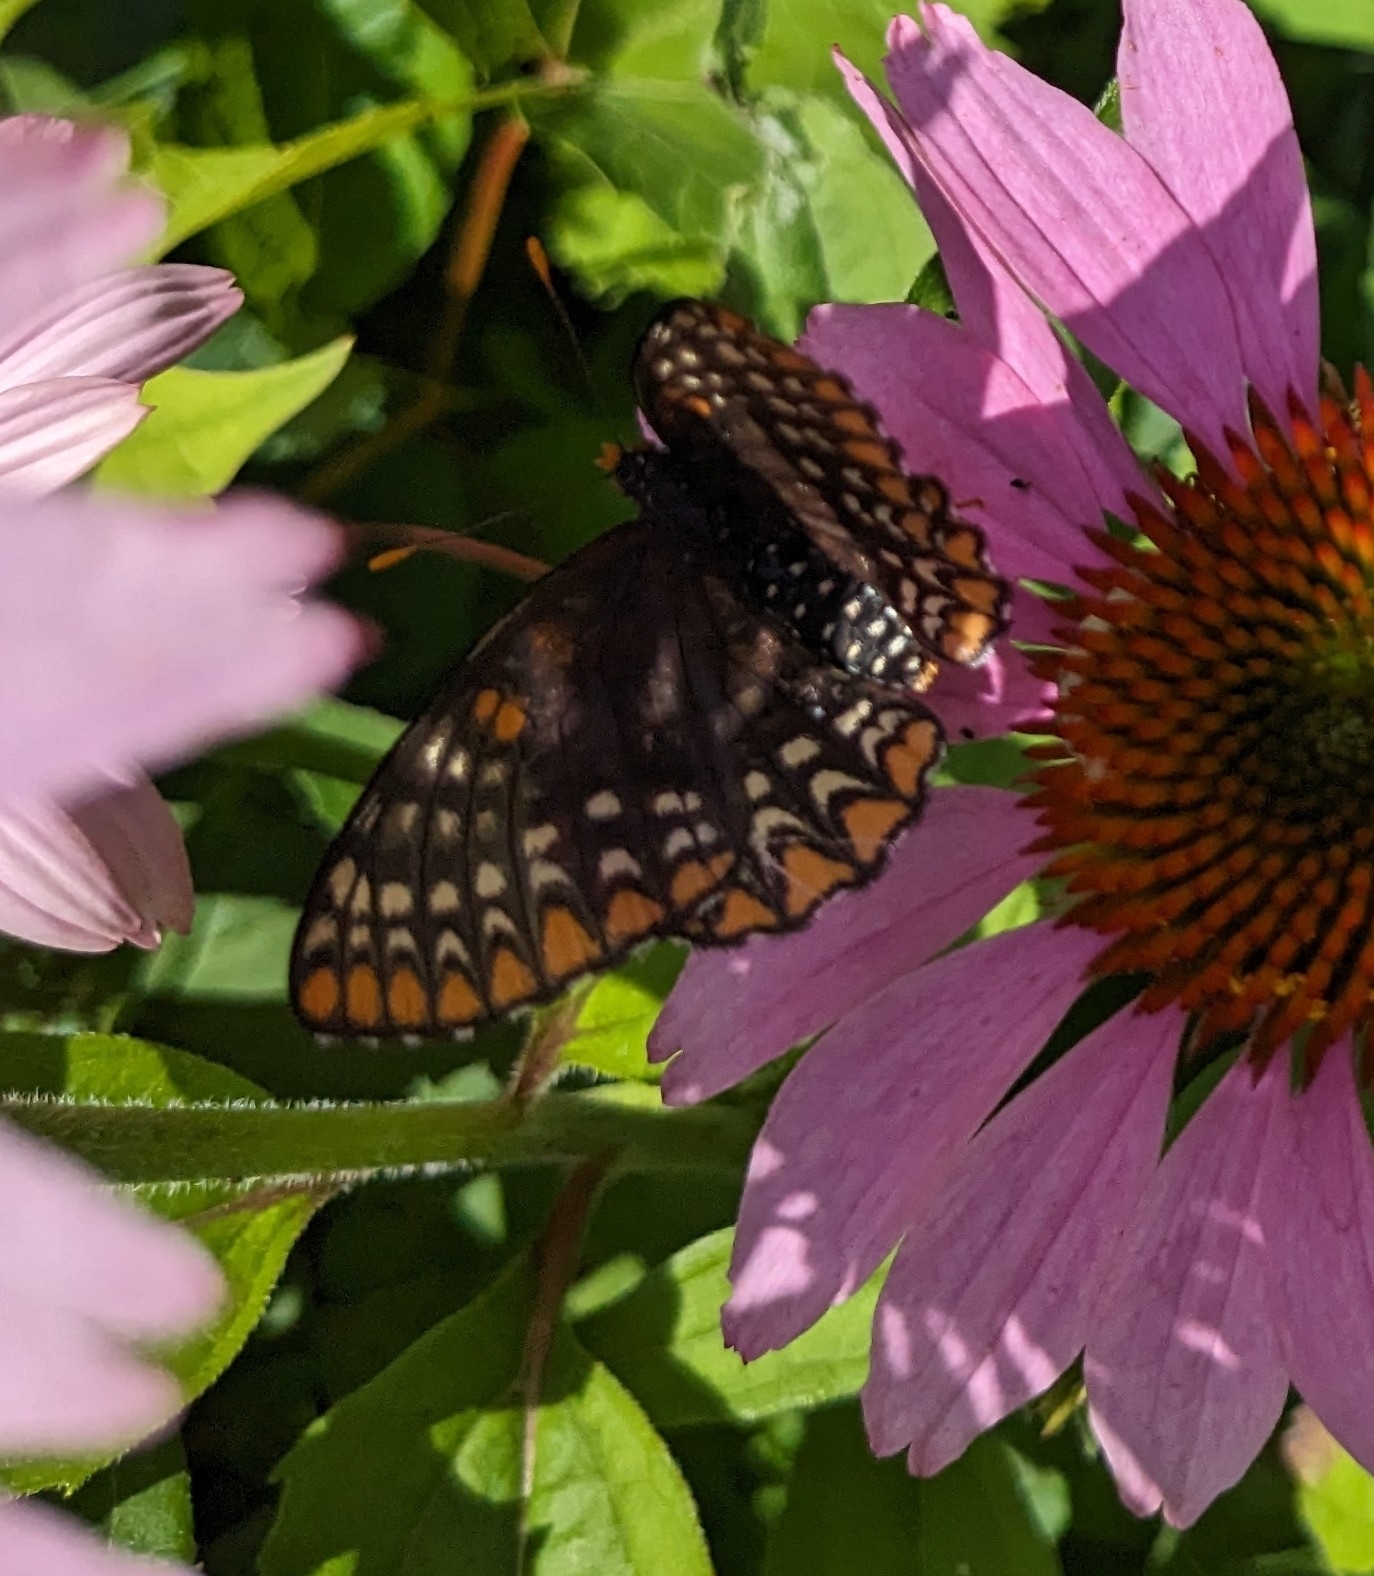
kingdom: Animalia
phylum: Arthropoda
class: Insecta
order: Lepidoptera
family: Nymphalidae
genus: Euphydryas
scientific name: Euphydryas phaeton
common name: Baltimore checkerspot
